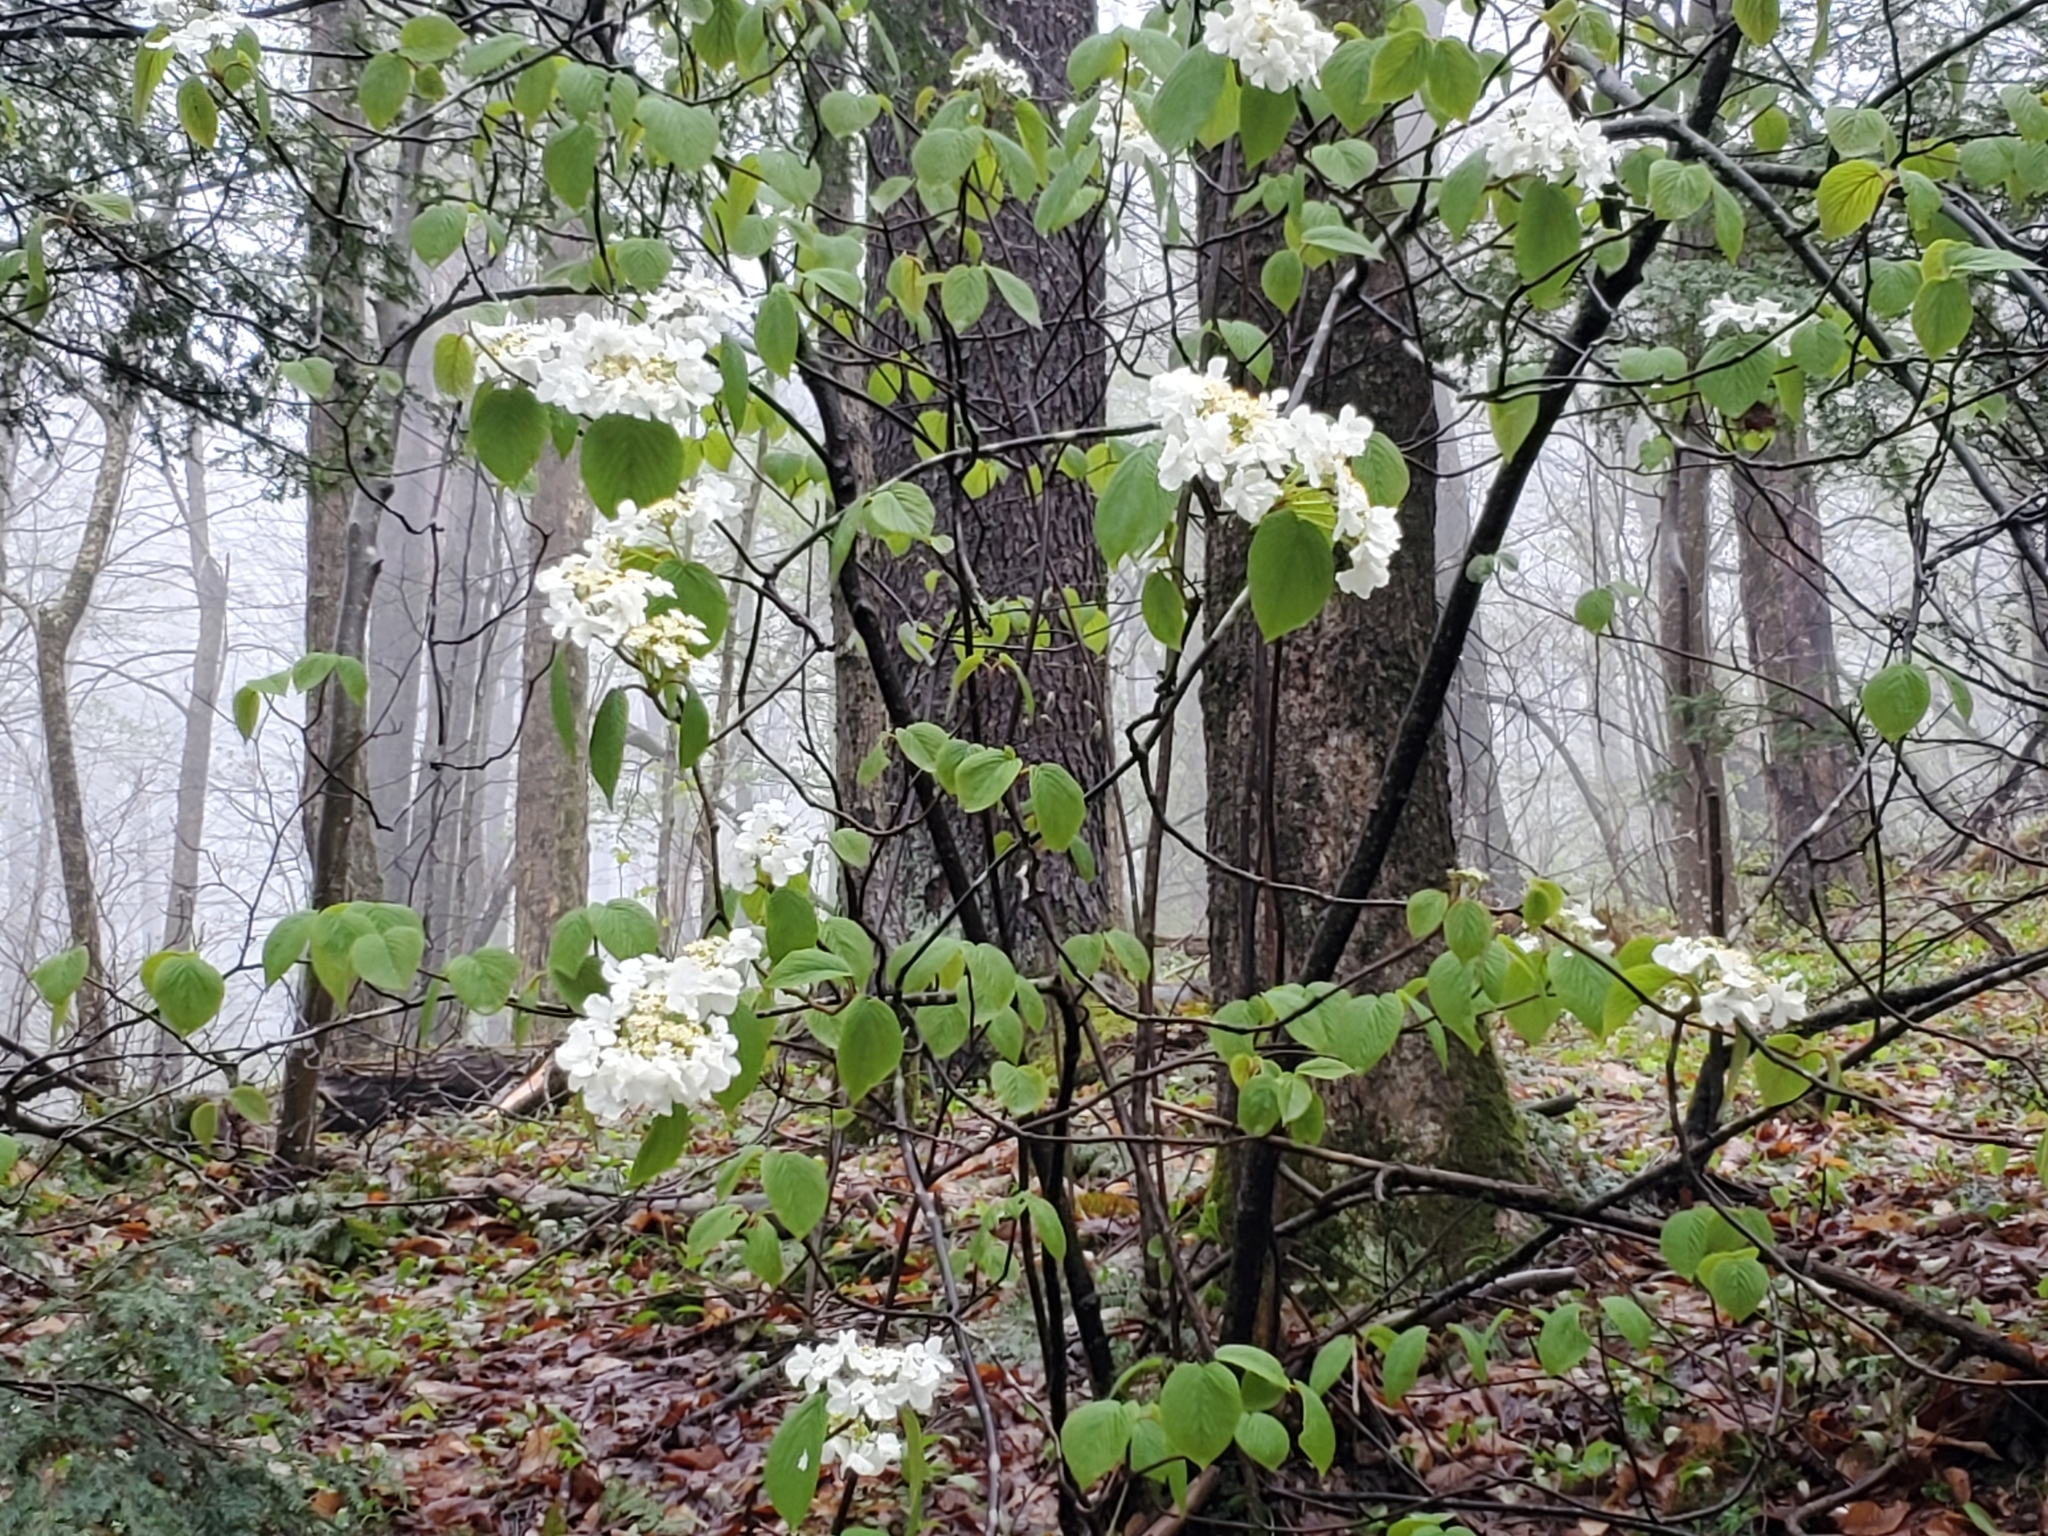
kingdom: Plantae
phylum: Tracheophyta
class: Magnoliopsida
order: Dipsacales
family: Viburnaceae
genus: Viburnum
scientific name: Viburnum lantanoides
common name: Hobblebush
